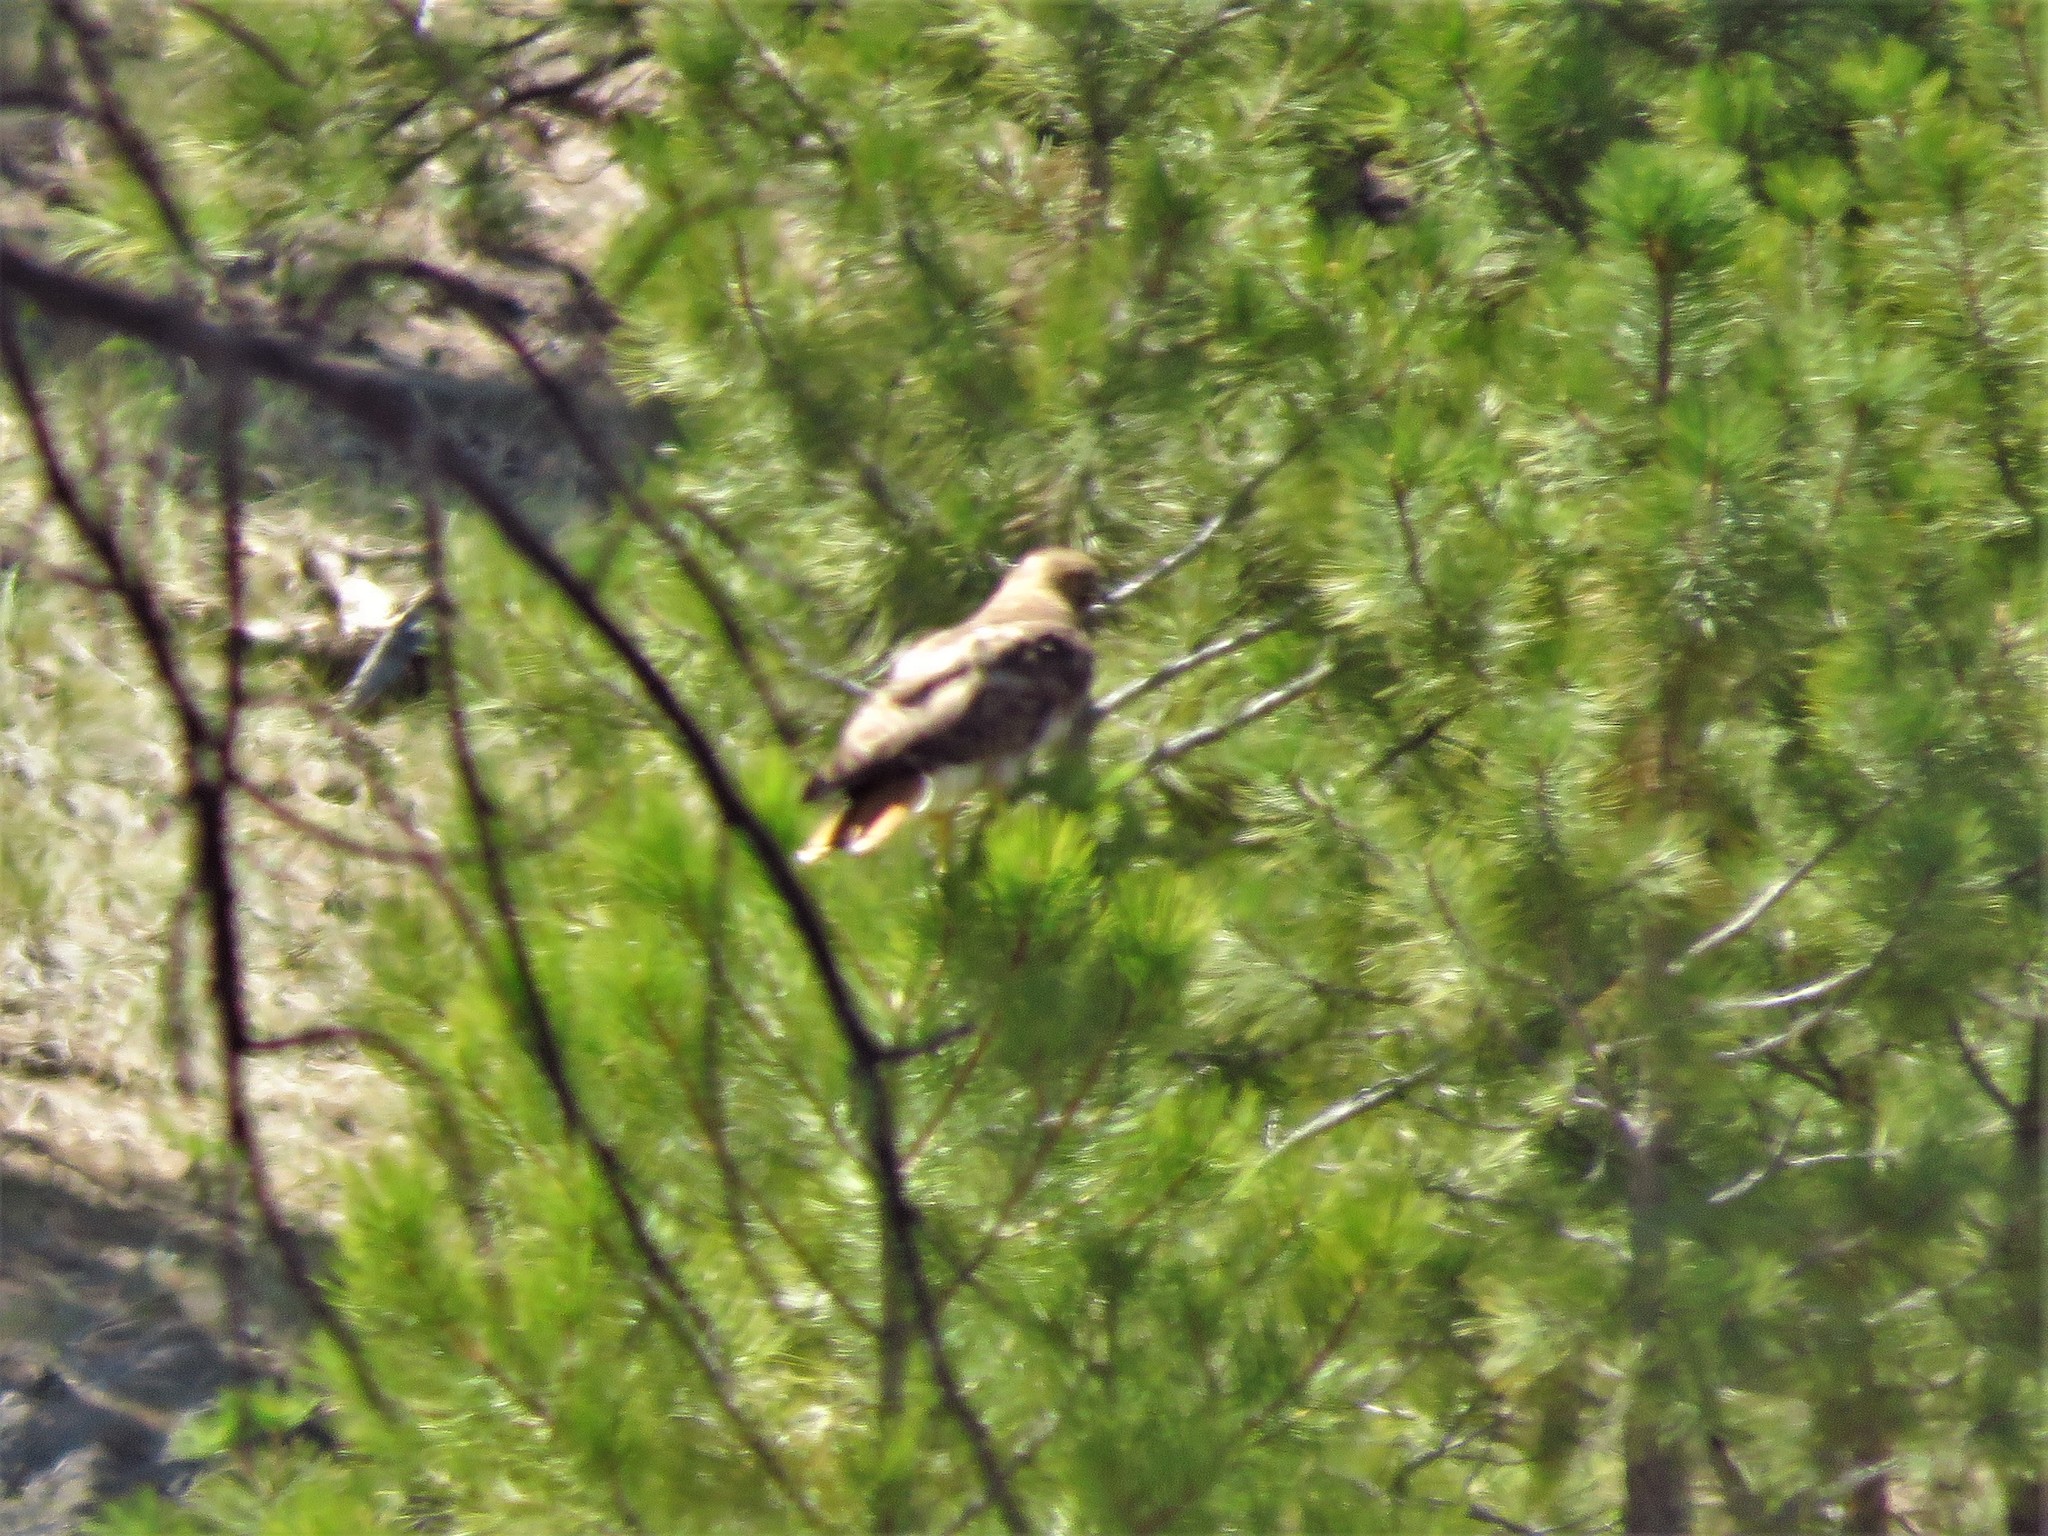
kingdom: Animalia
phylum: Chordata
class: Aves
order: Accipitriformes
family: Accipitridae
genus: Buteo
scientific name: Buteo jamaicensis
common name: Red-tailed hawk
